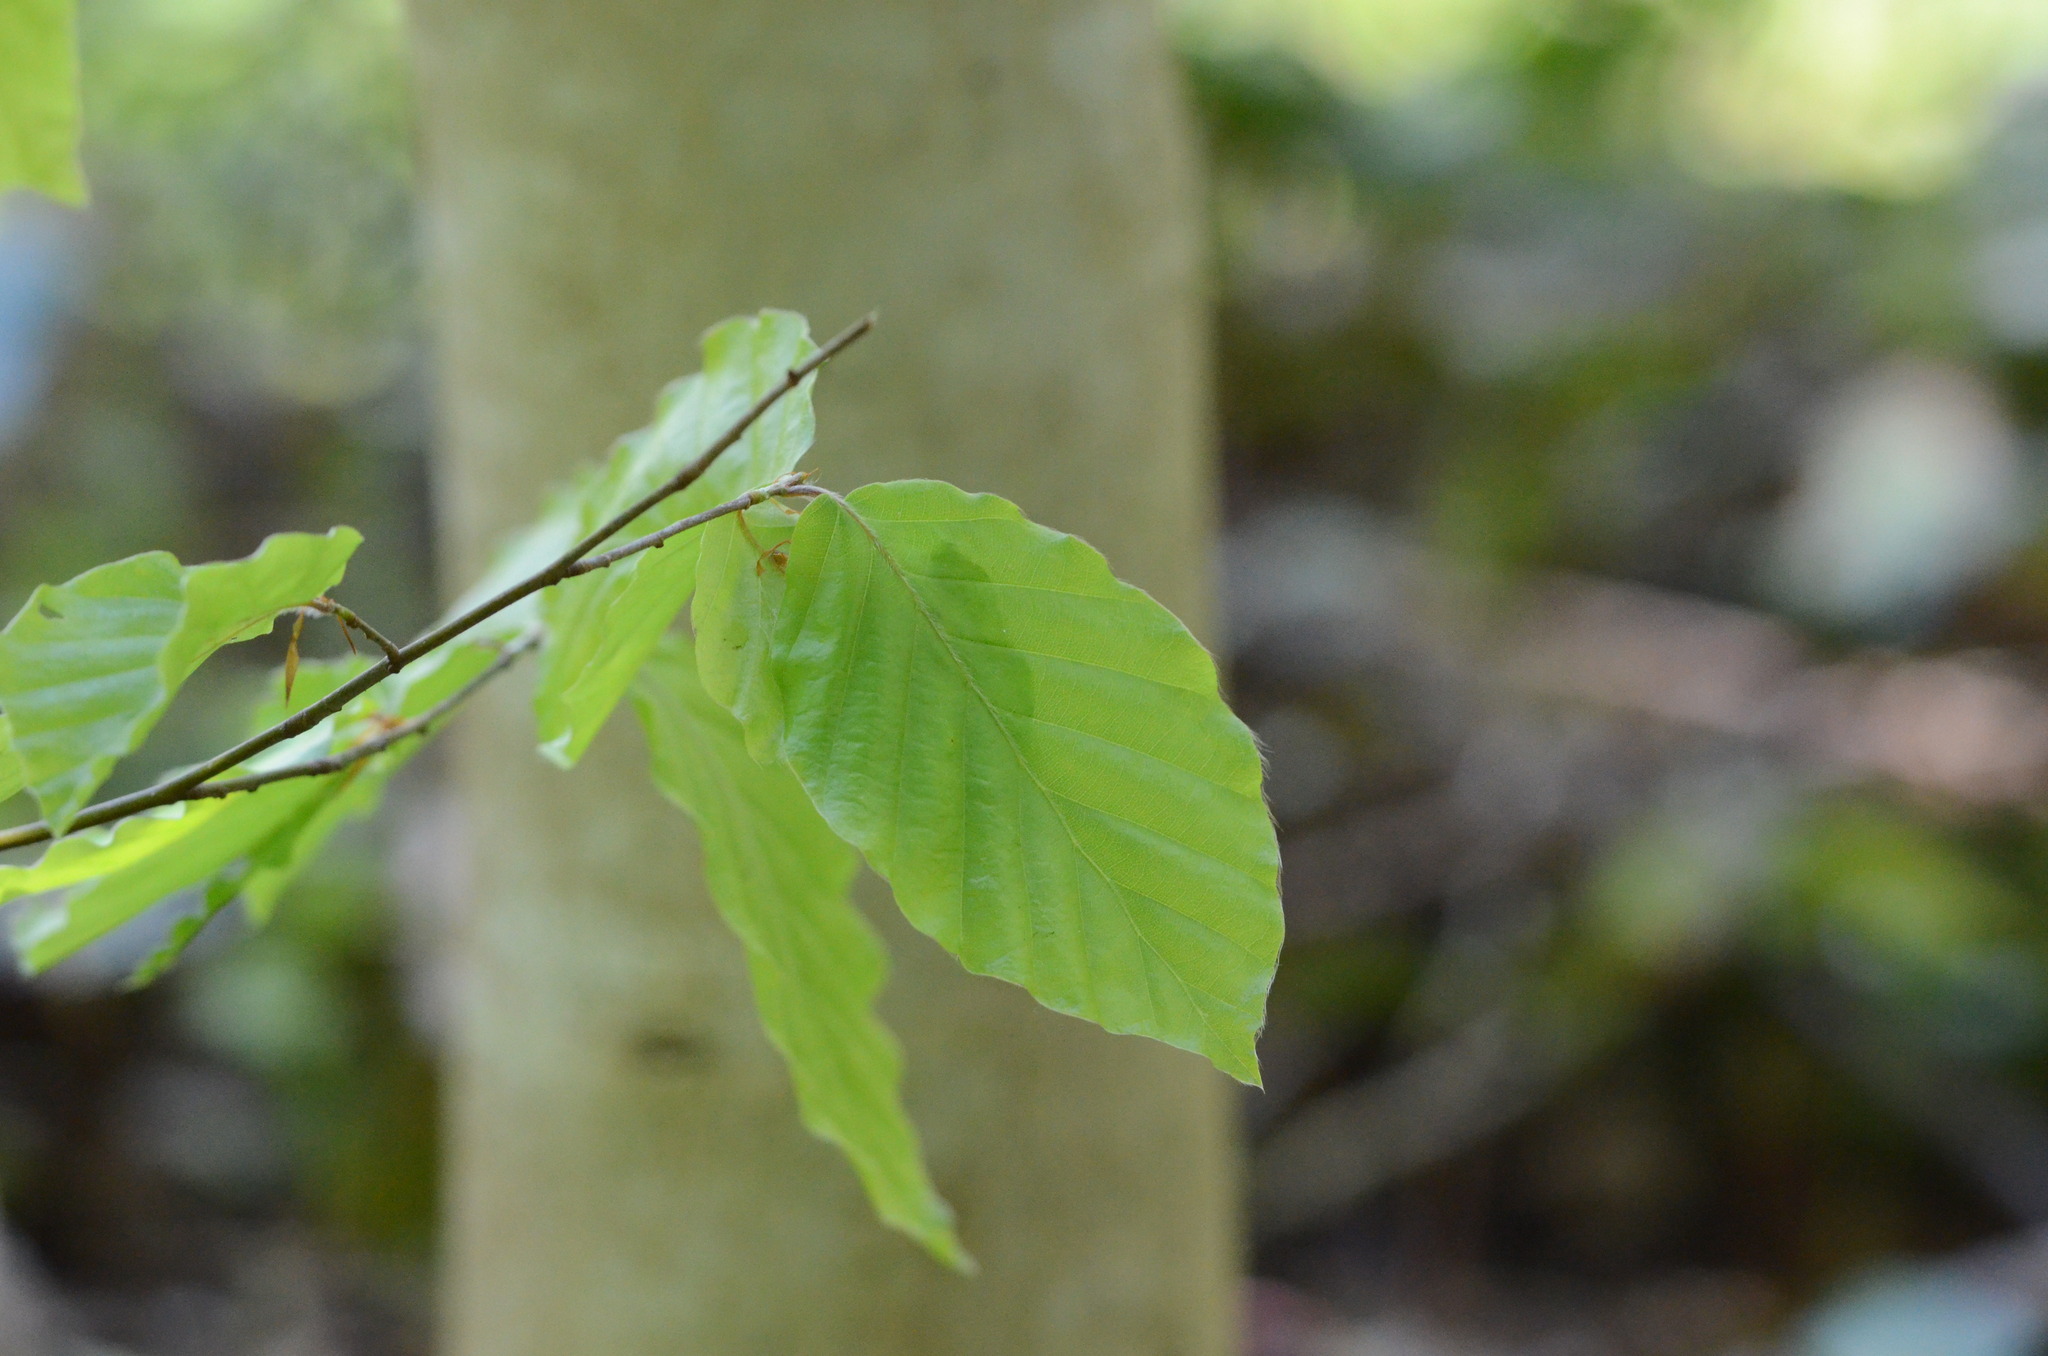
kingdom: Plantae
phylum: Tracheophyta
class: Magnoliopsida
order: Fagales
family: Fagaceae
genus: Fagus
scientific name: Fagus sylvatica
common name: Beech
